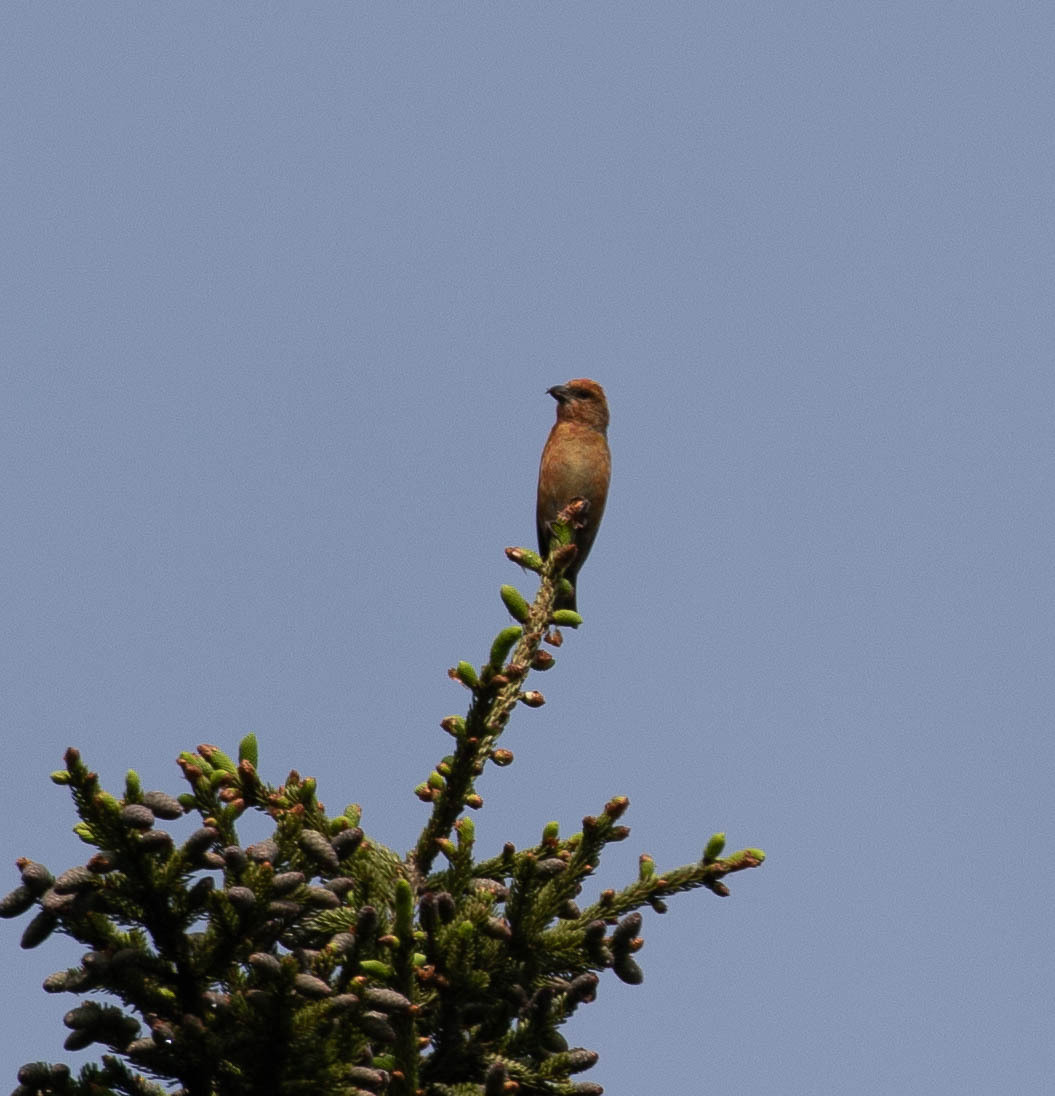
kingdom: Animalia
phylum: Chordata
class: Aves
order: Passeriformes
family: Fringillidae
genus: Loxia
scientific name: Loxia curvirostra
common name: Red crossbill
